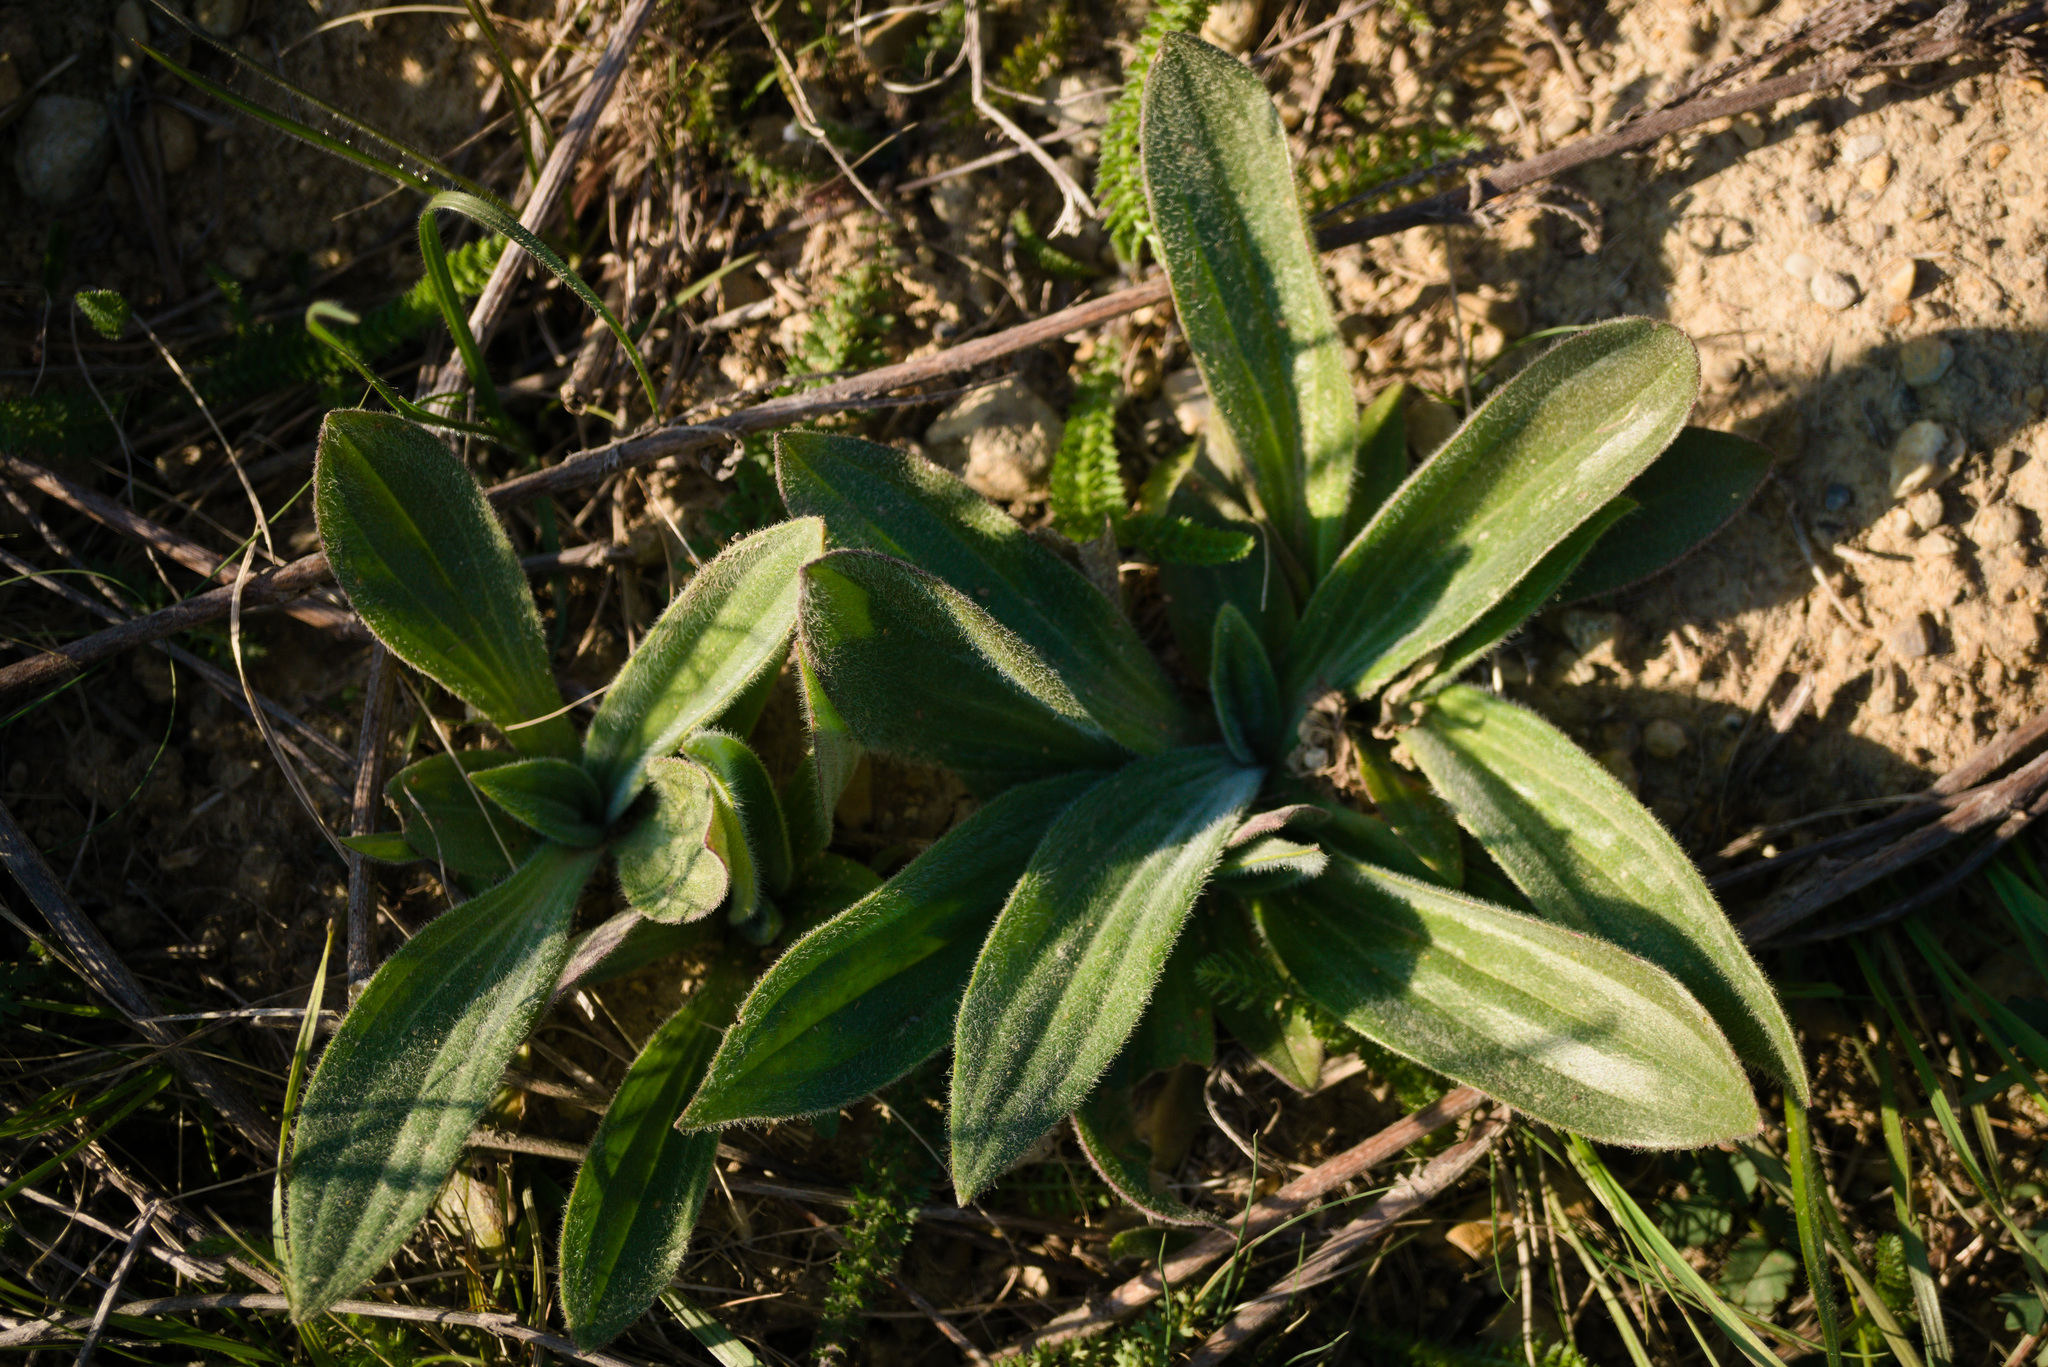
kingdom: Plantae
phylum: Tracheophyta
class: Magnoliopsida
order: Lamiales
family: Plantaginaceae
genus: Plantago
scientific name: Plantago media
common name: Hoary plantain
